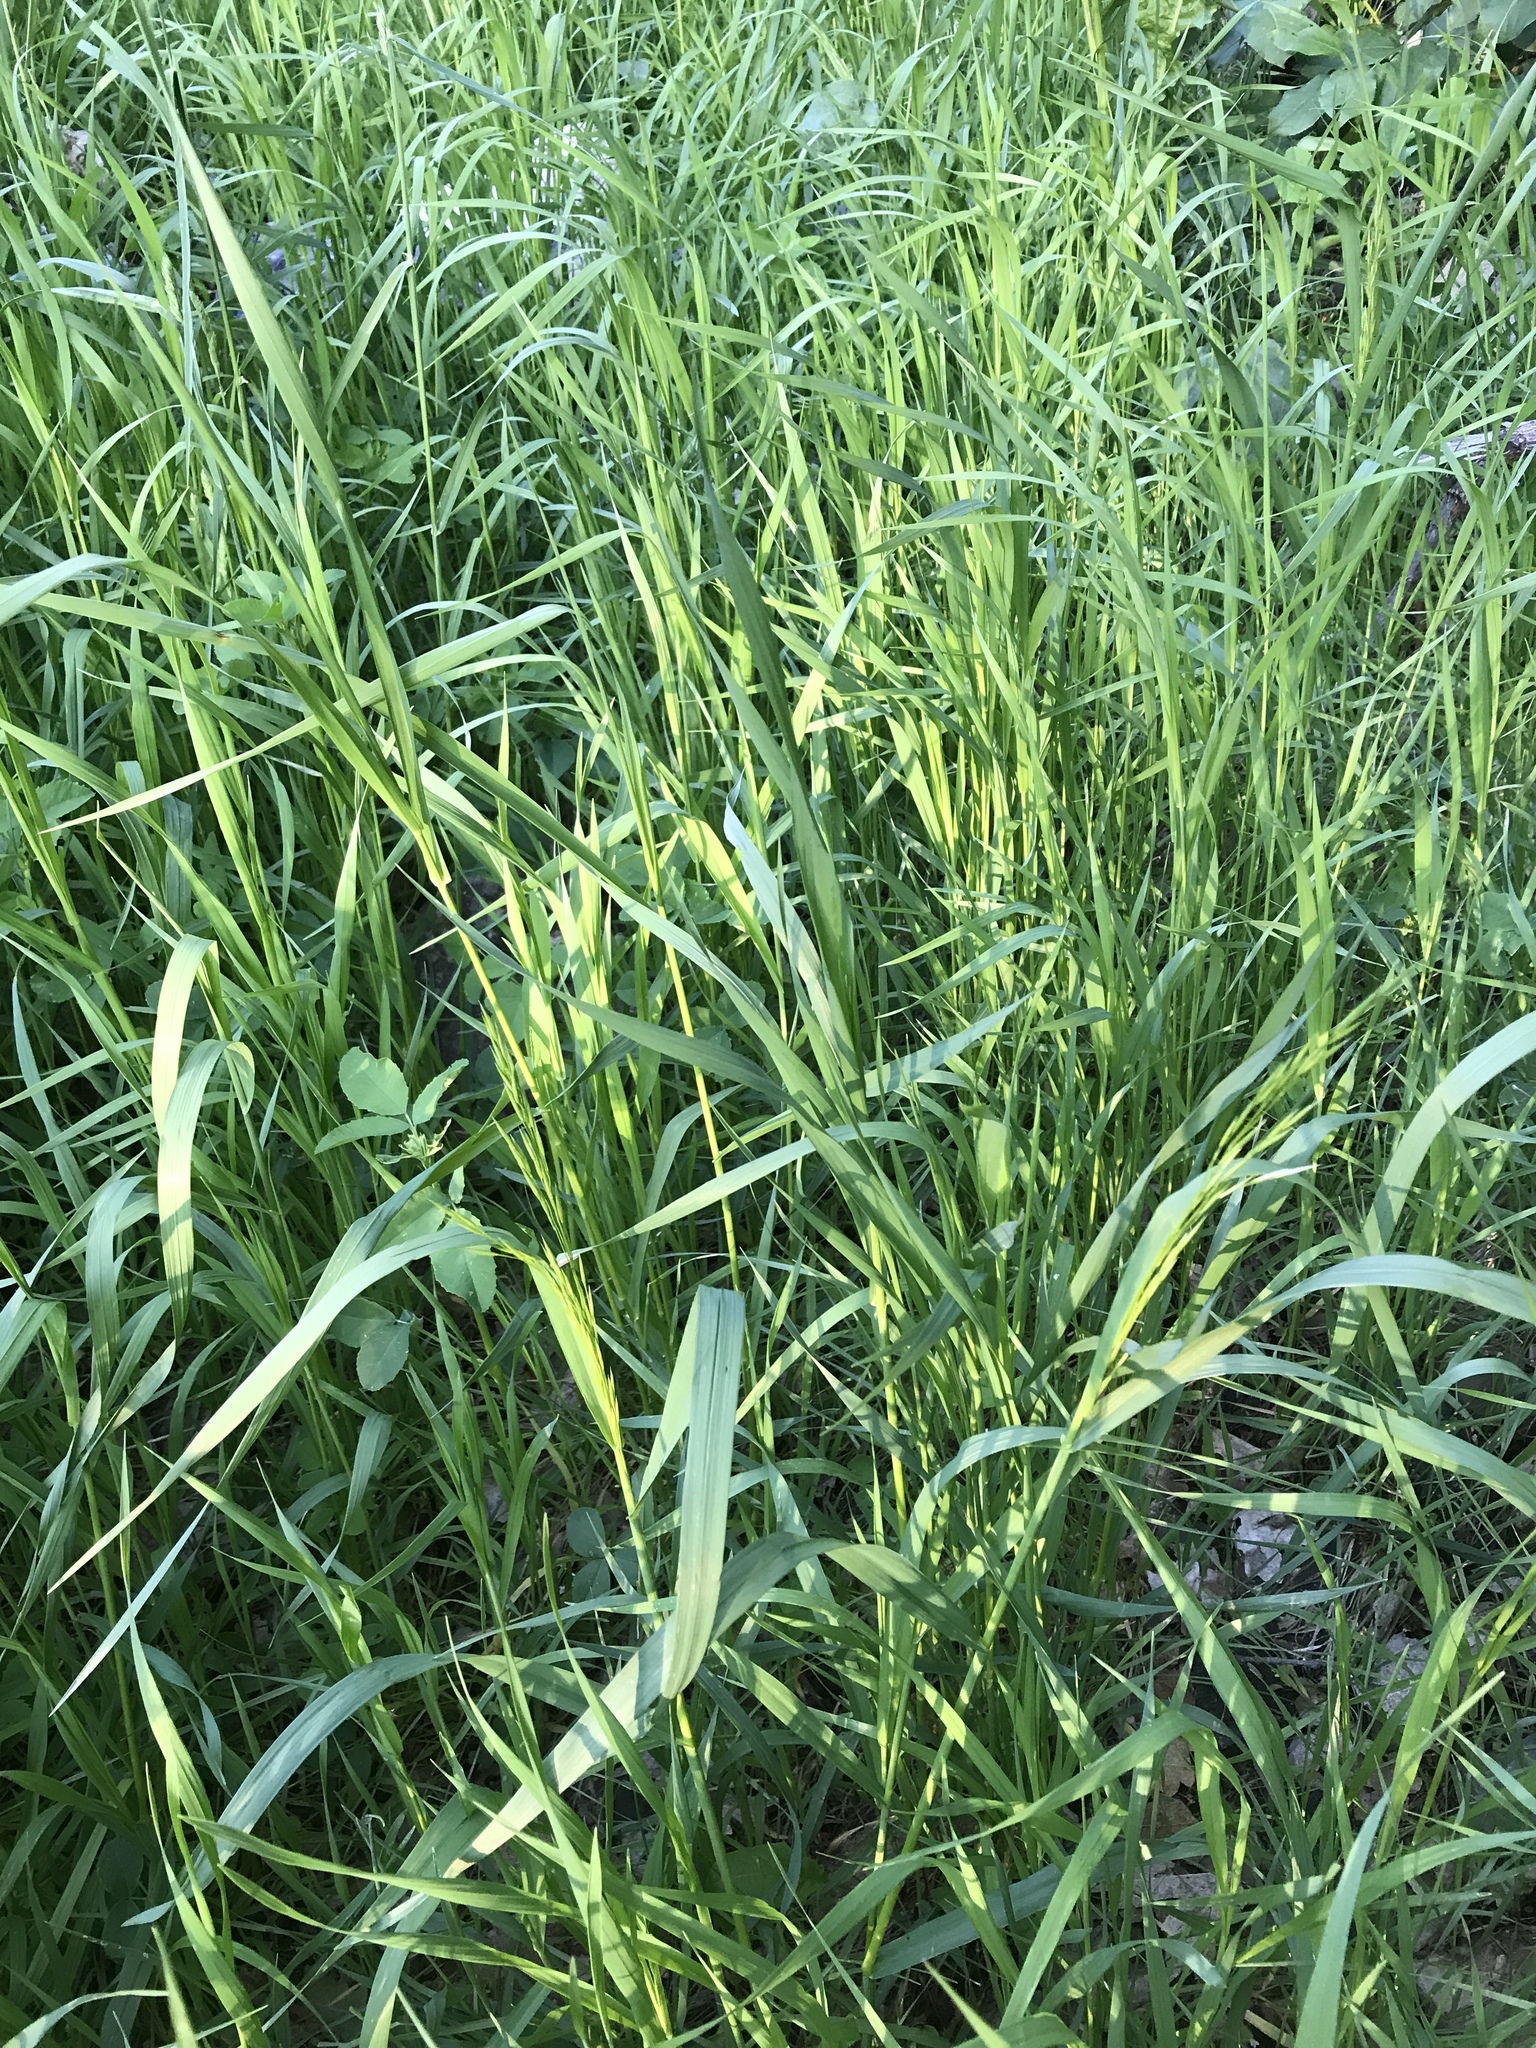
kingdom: Plantae
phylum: Tracheophyta
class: Liliopsida
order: Poales
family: Poaceae
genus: Dactylis
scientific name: Dactylis glomerata
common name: Orchardgrass
